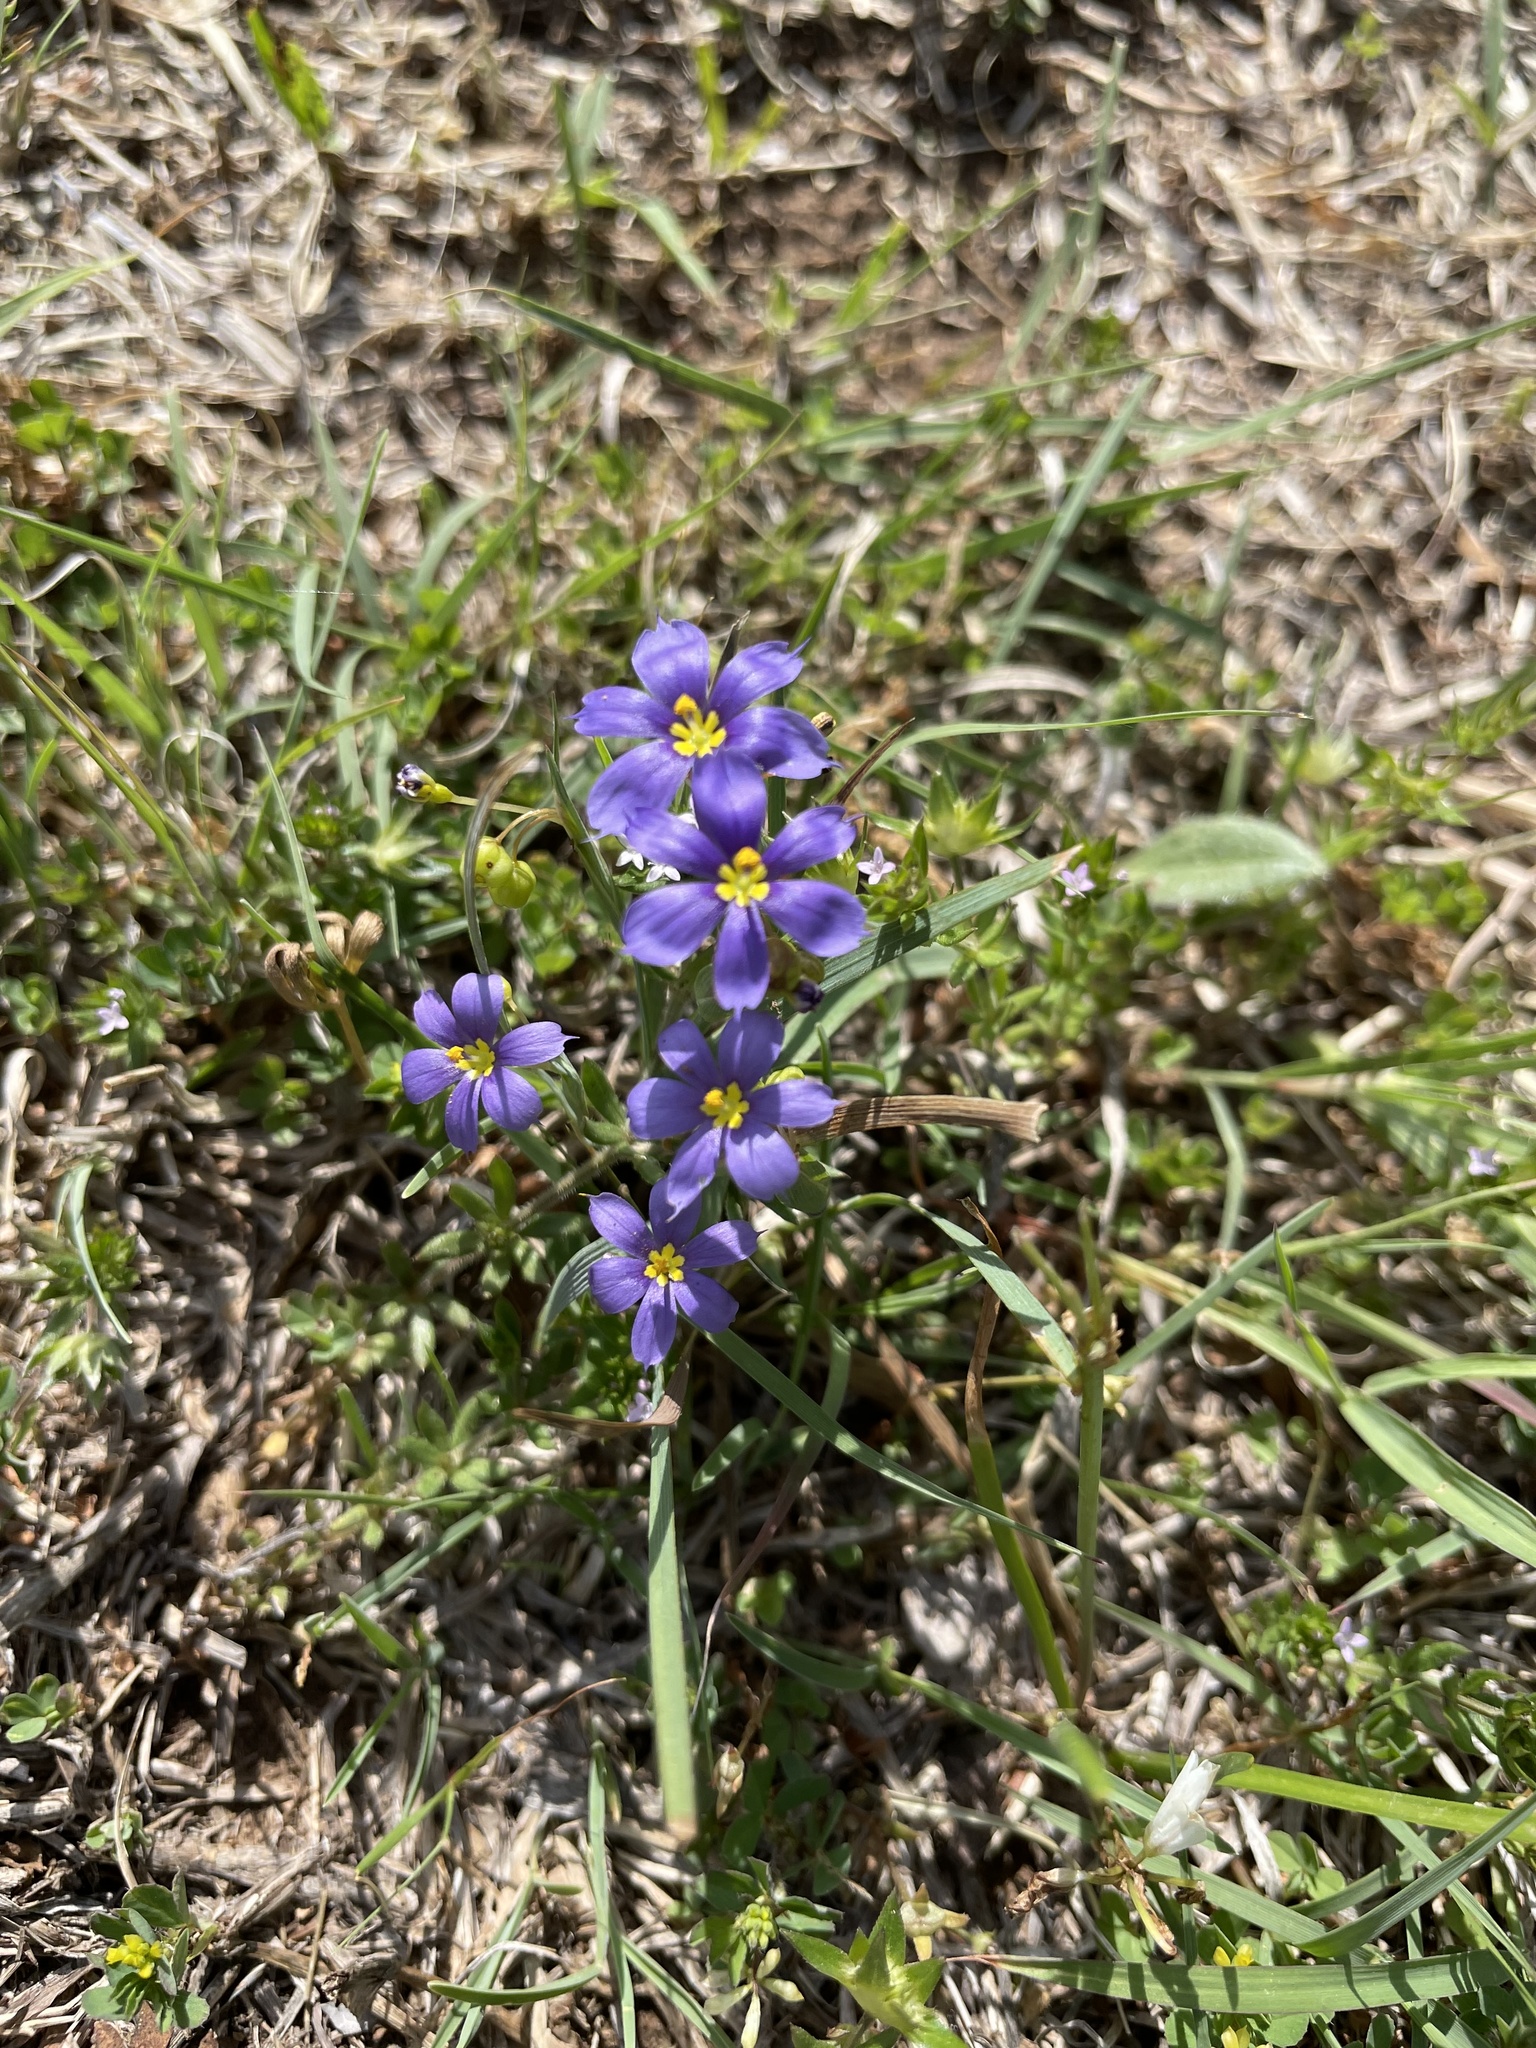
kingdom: Plantae
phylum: Tracheophyta
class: Liliopsida
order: Asparagales
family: Iridaceae
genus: Sisyrinchium
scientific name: Sisyrinchium pruinosum
